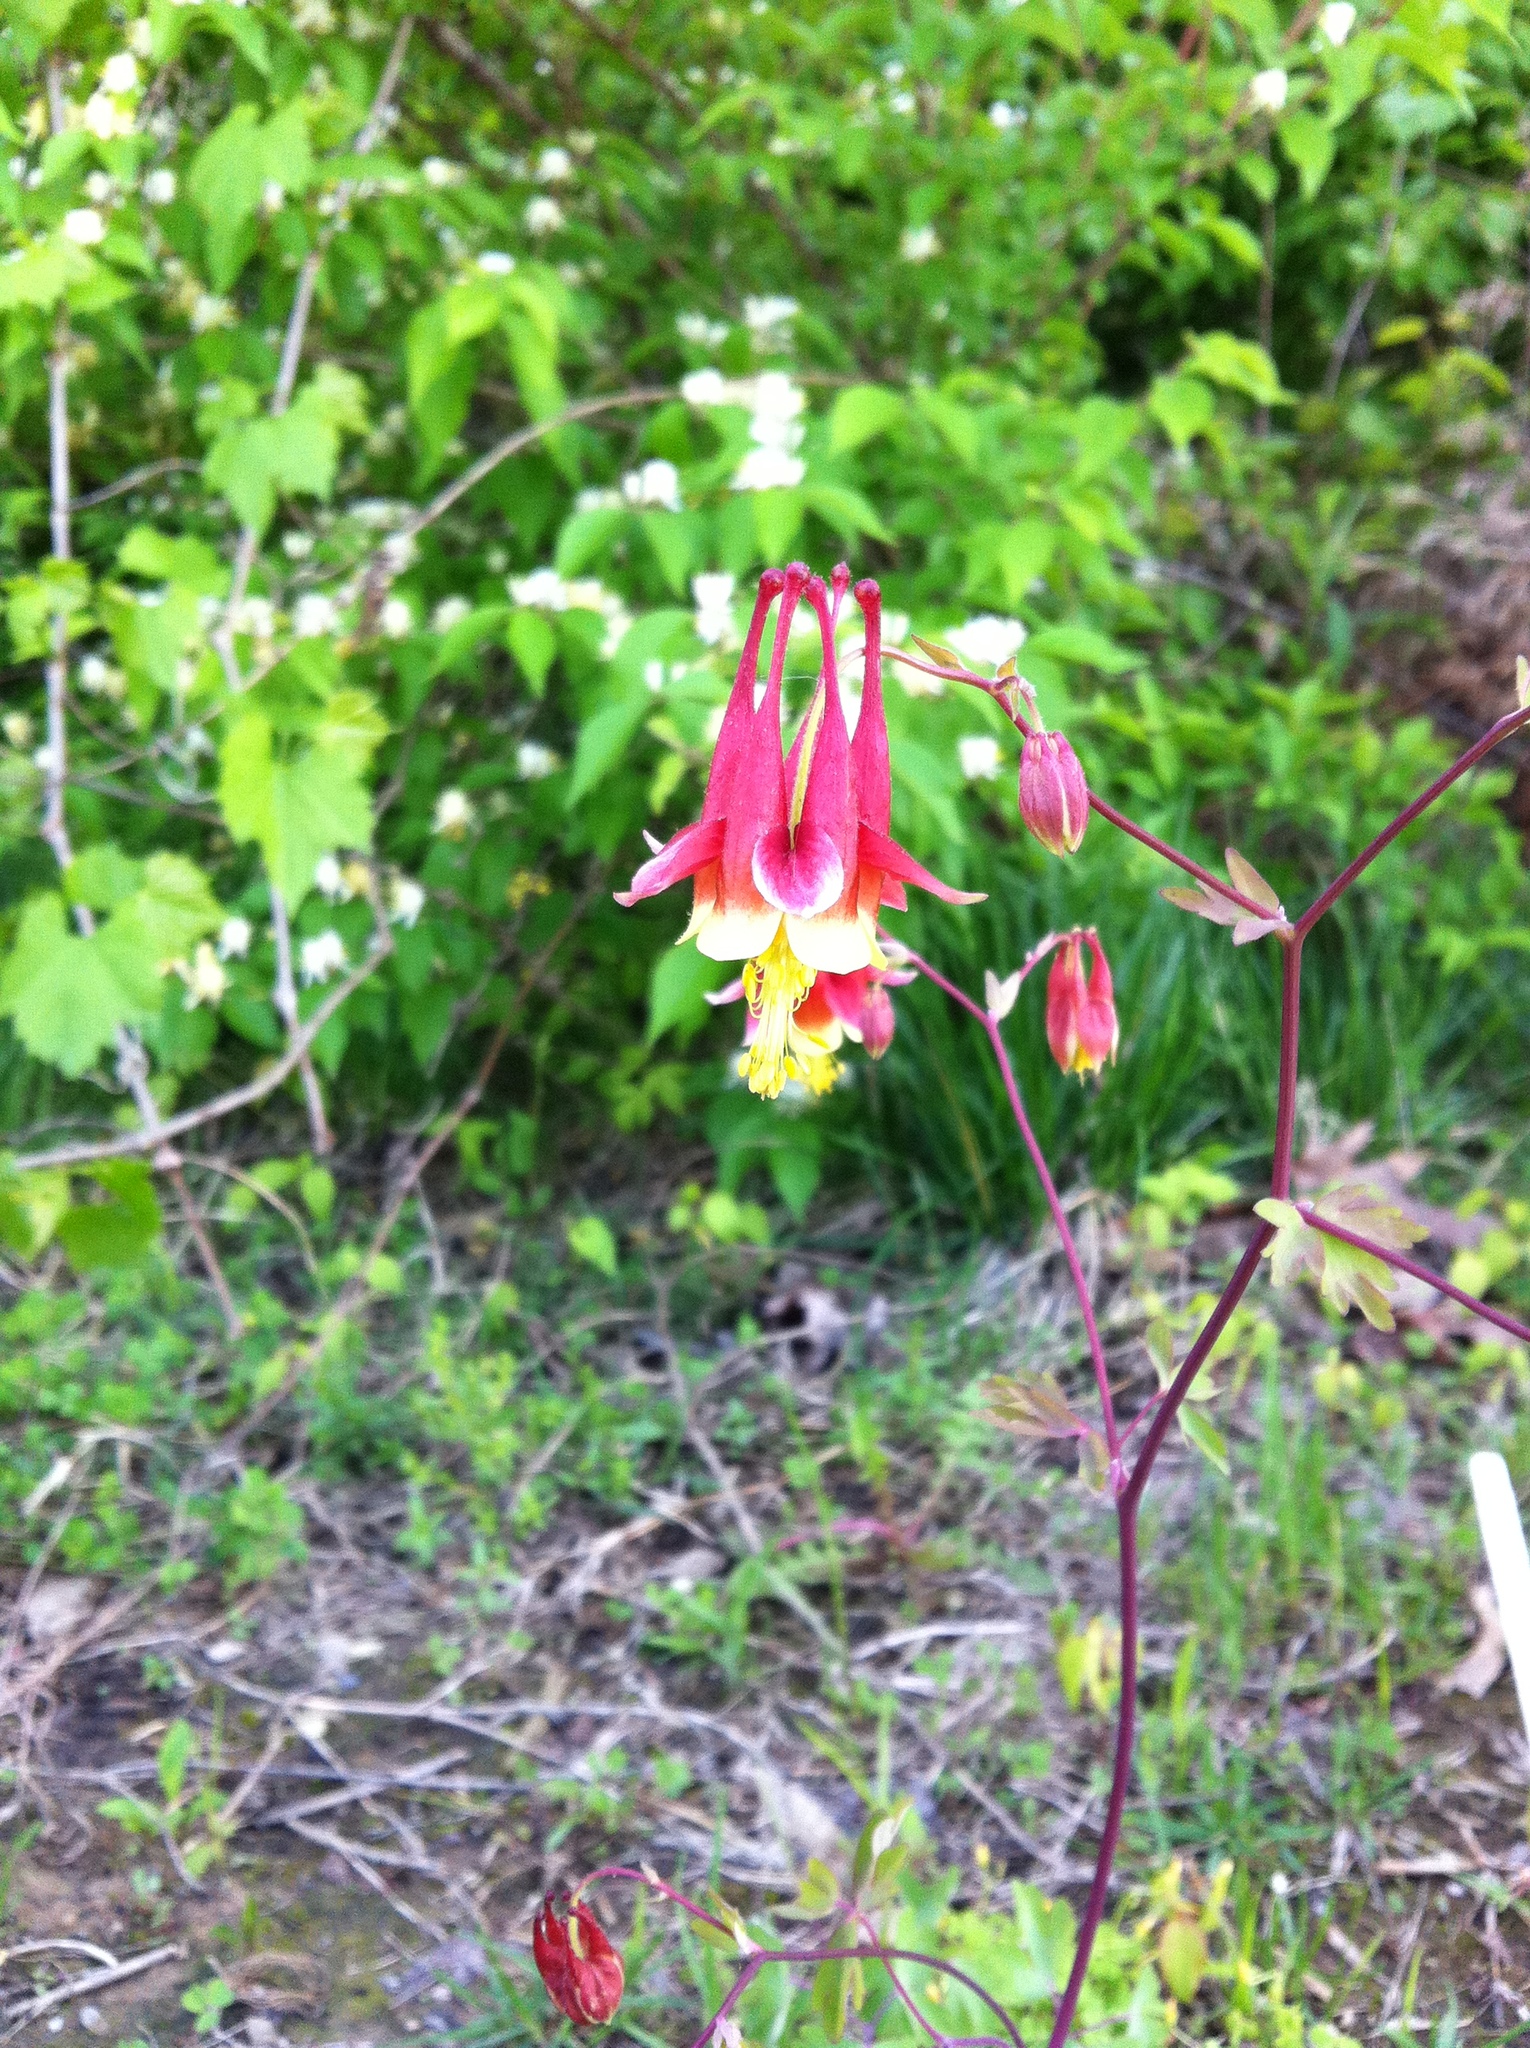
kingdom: Plantae
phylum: Tracheophyta
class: Magnoliopsida
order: Ranunculales
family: Ranunculaceae
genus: Aquilegia
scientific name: Aquilegia canadensis
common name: American columbine
